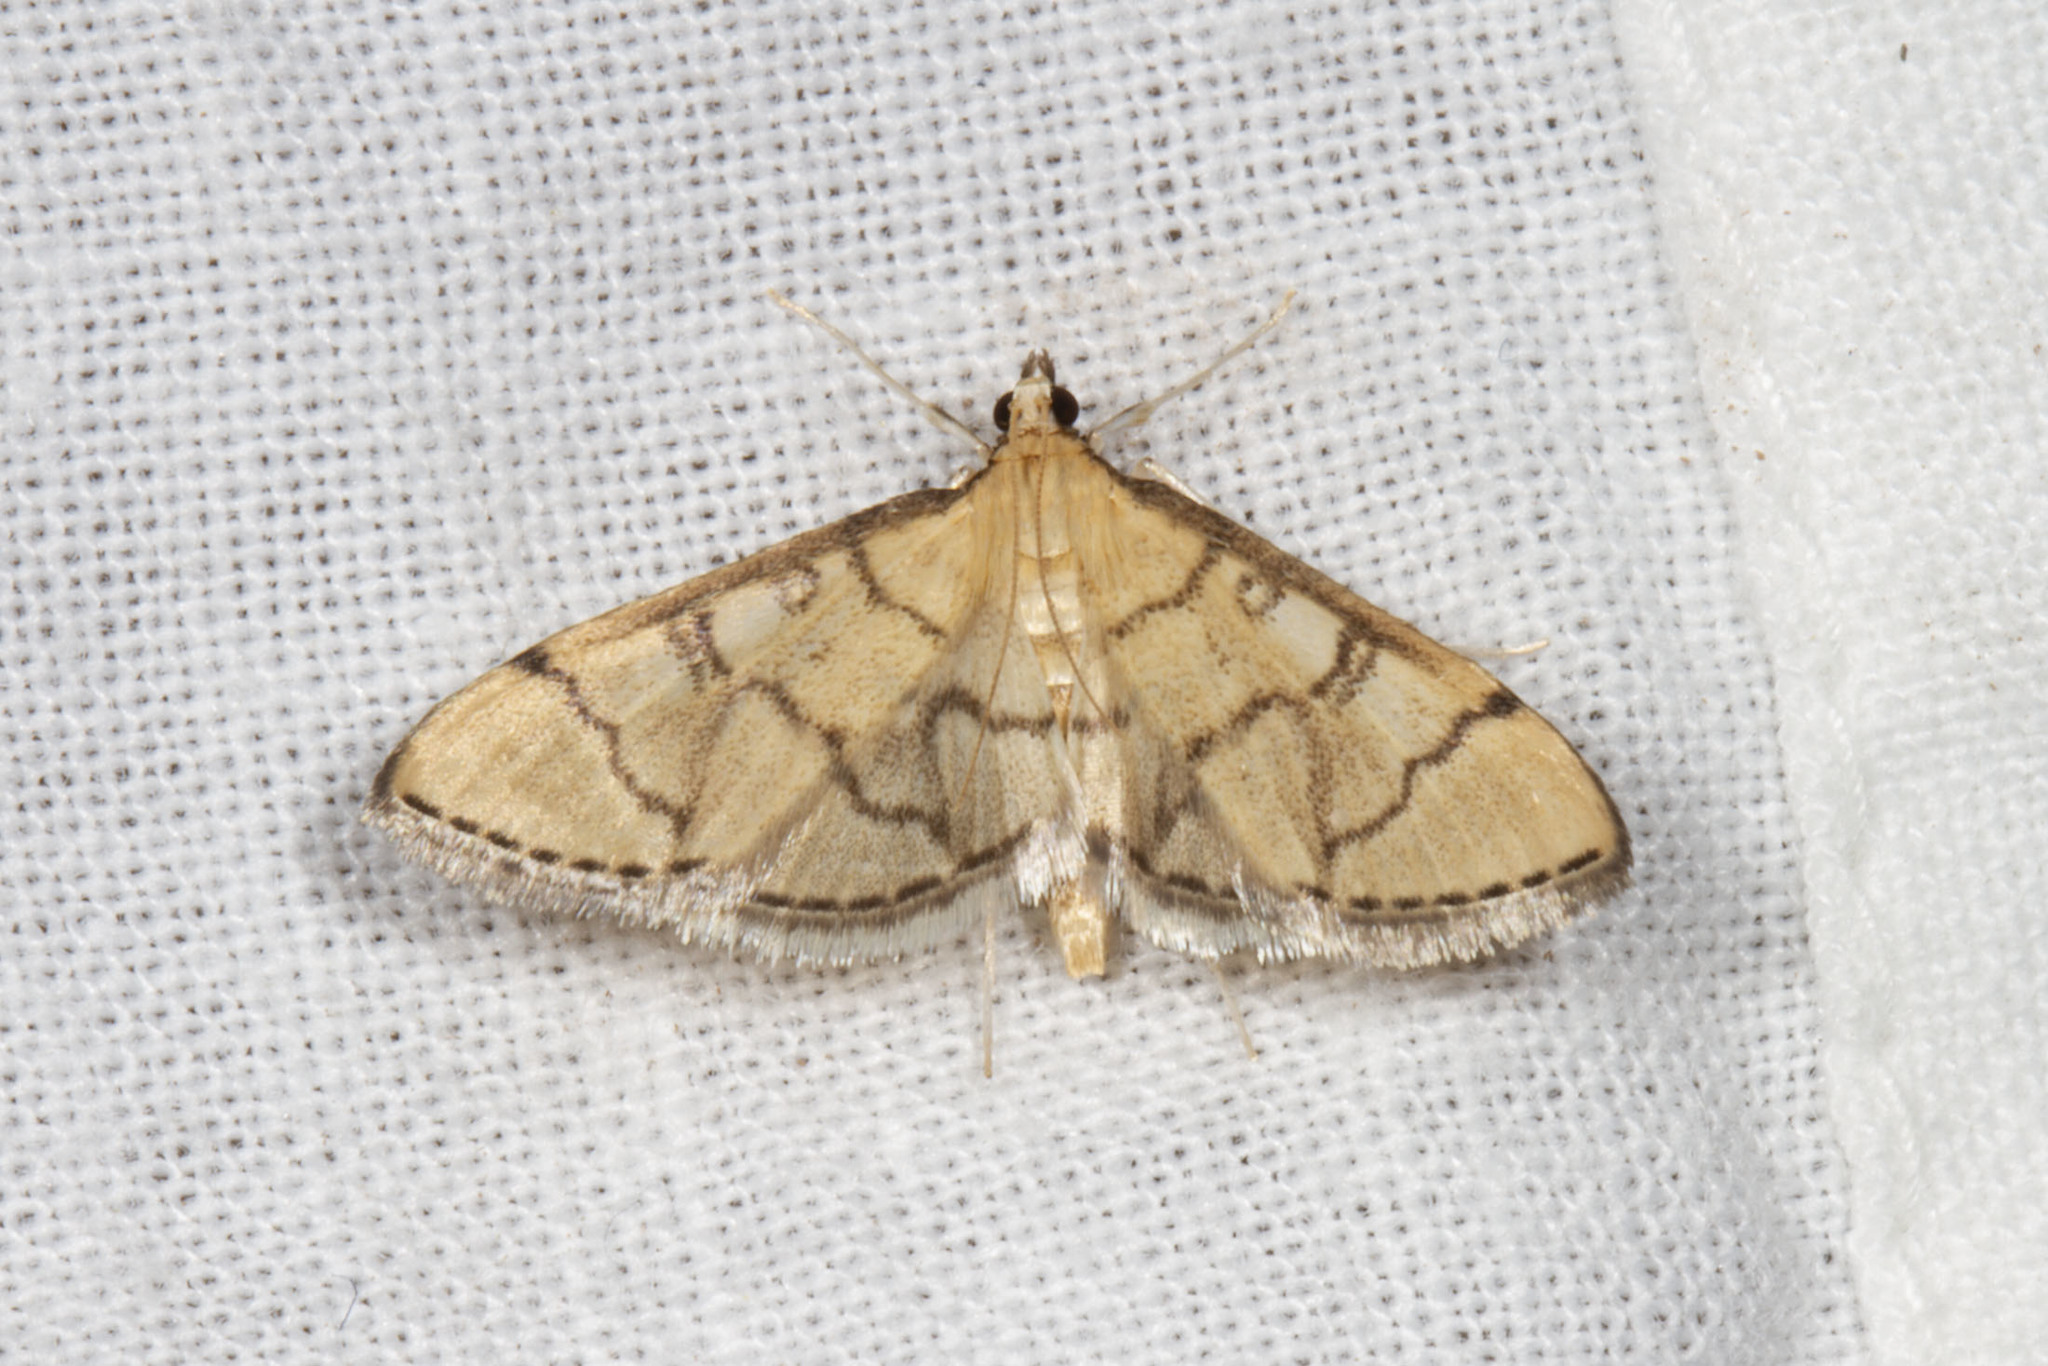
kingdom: Animalia
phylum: Arthropoda
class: Insecta
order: Lepidoptera
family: Crambidae
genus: Lamprosema
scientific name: Lamprosema Blepharomastix ranalis
